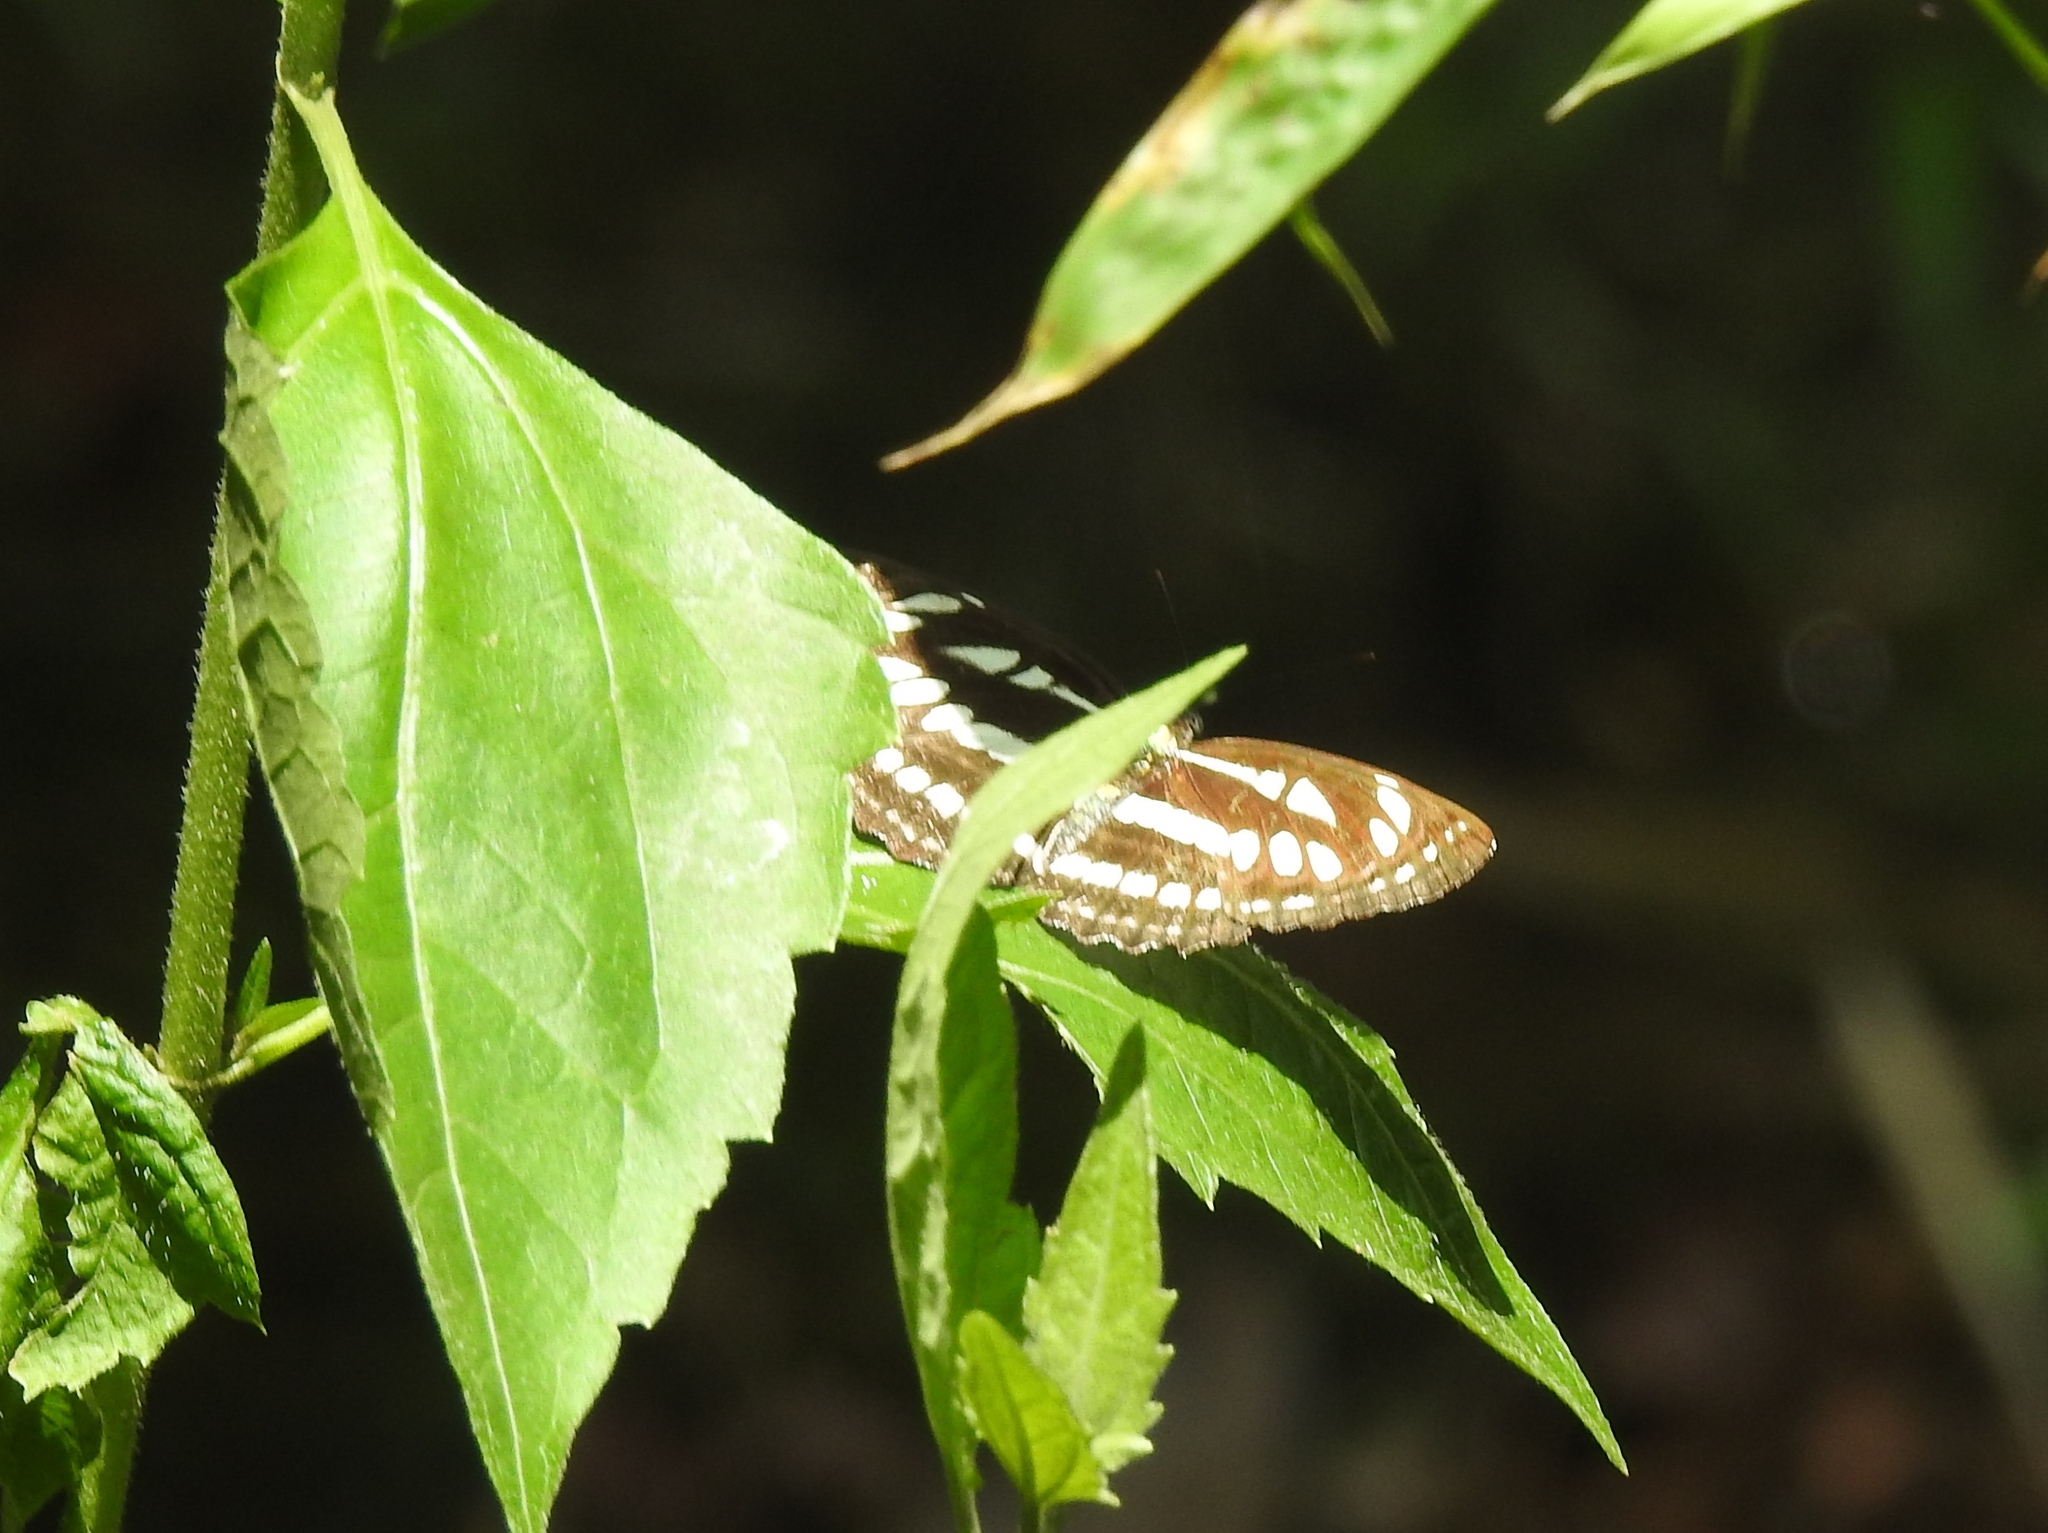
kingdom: Animalia
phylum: Arthropoda
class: Insecta
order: Lepidoptera
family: Nymphalidae
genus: Neptis
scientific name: Neptis hylas
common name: Common sailer
